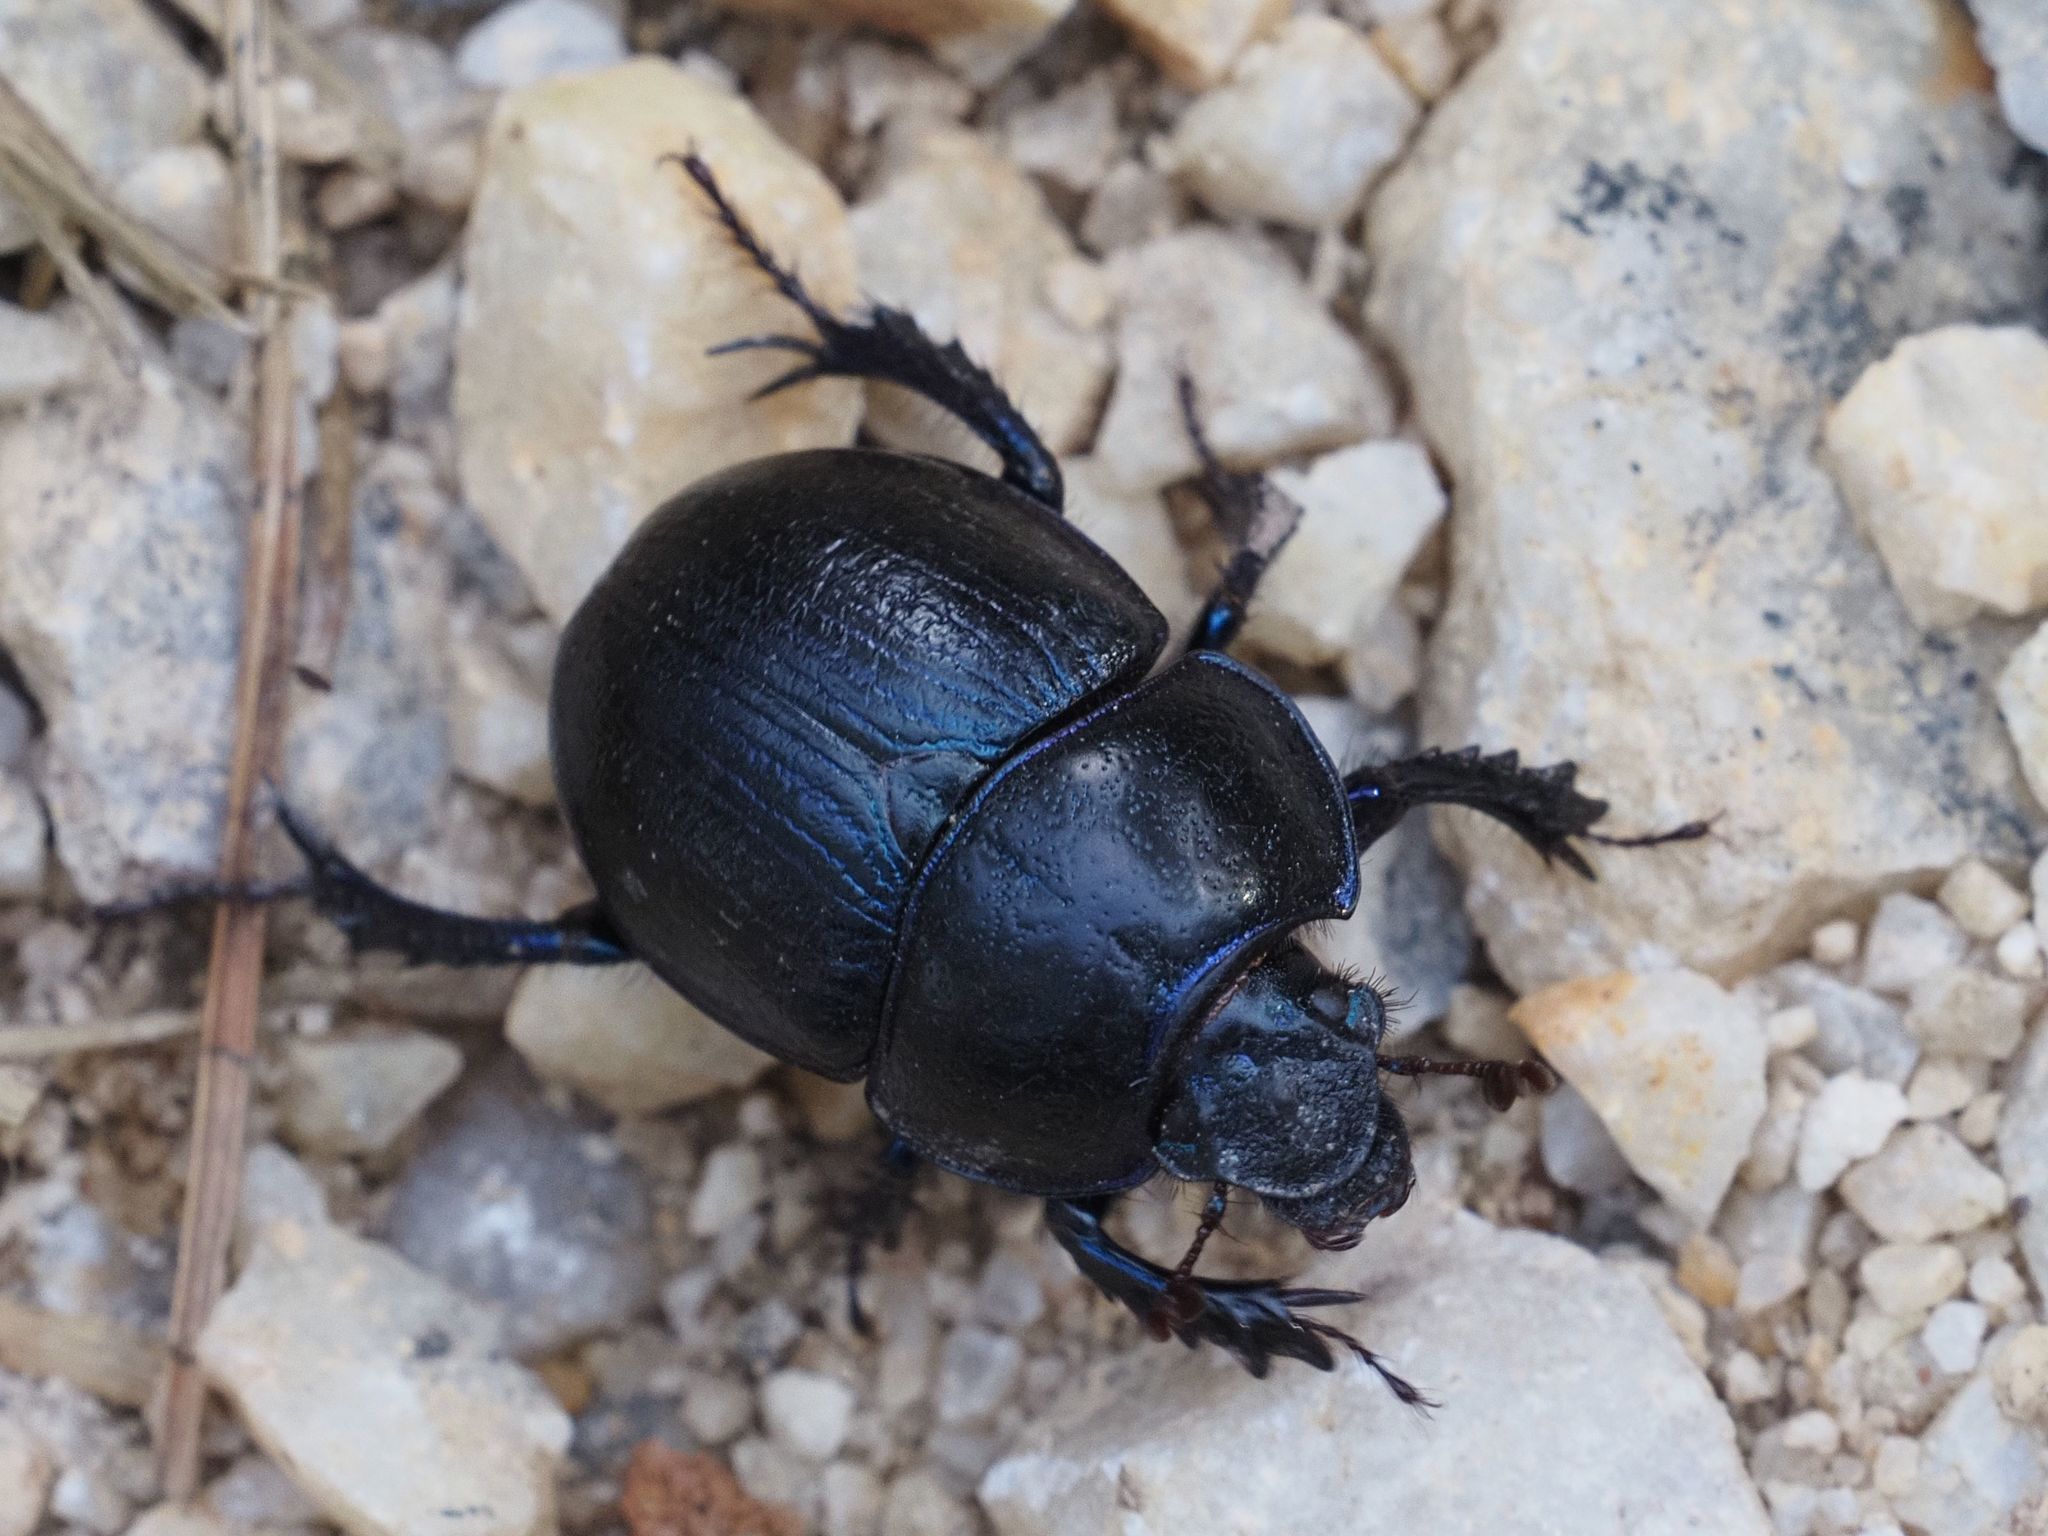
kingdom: Animalia
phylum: Arthropoda
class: Insecta
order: Coleoptera
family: Geotrupidae
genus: Anoplotrupes
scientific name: Anoplotrupes stercorosus
